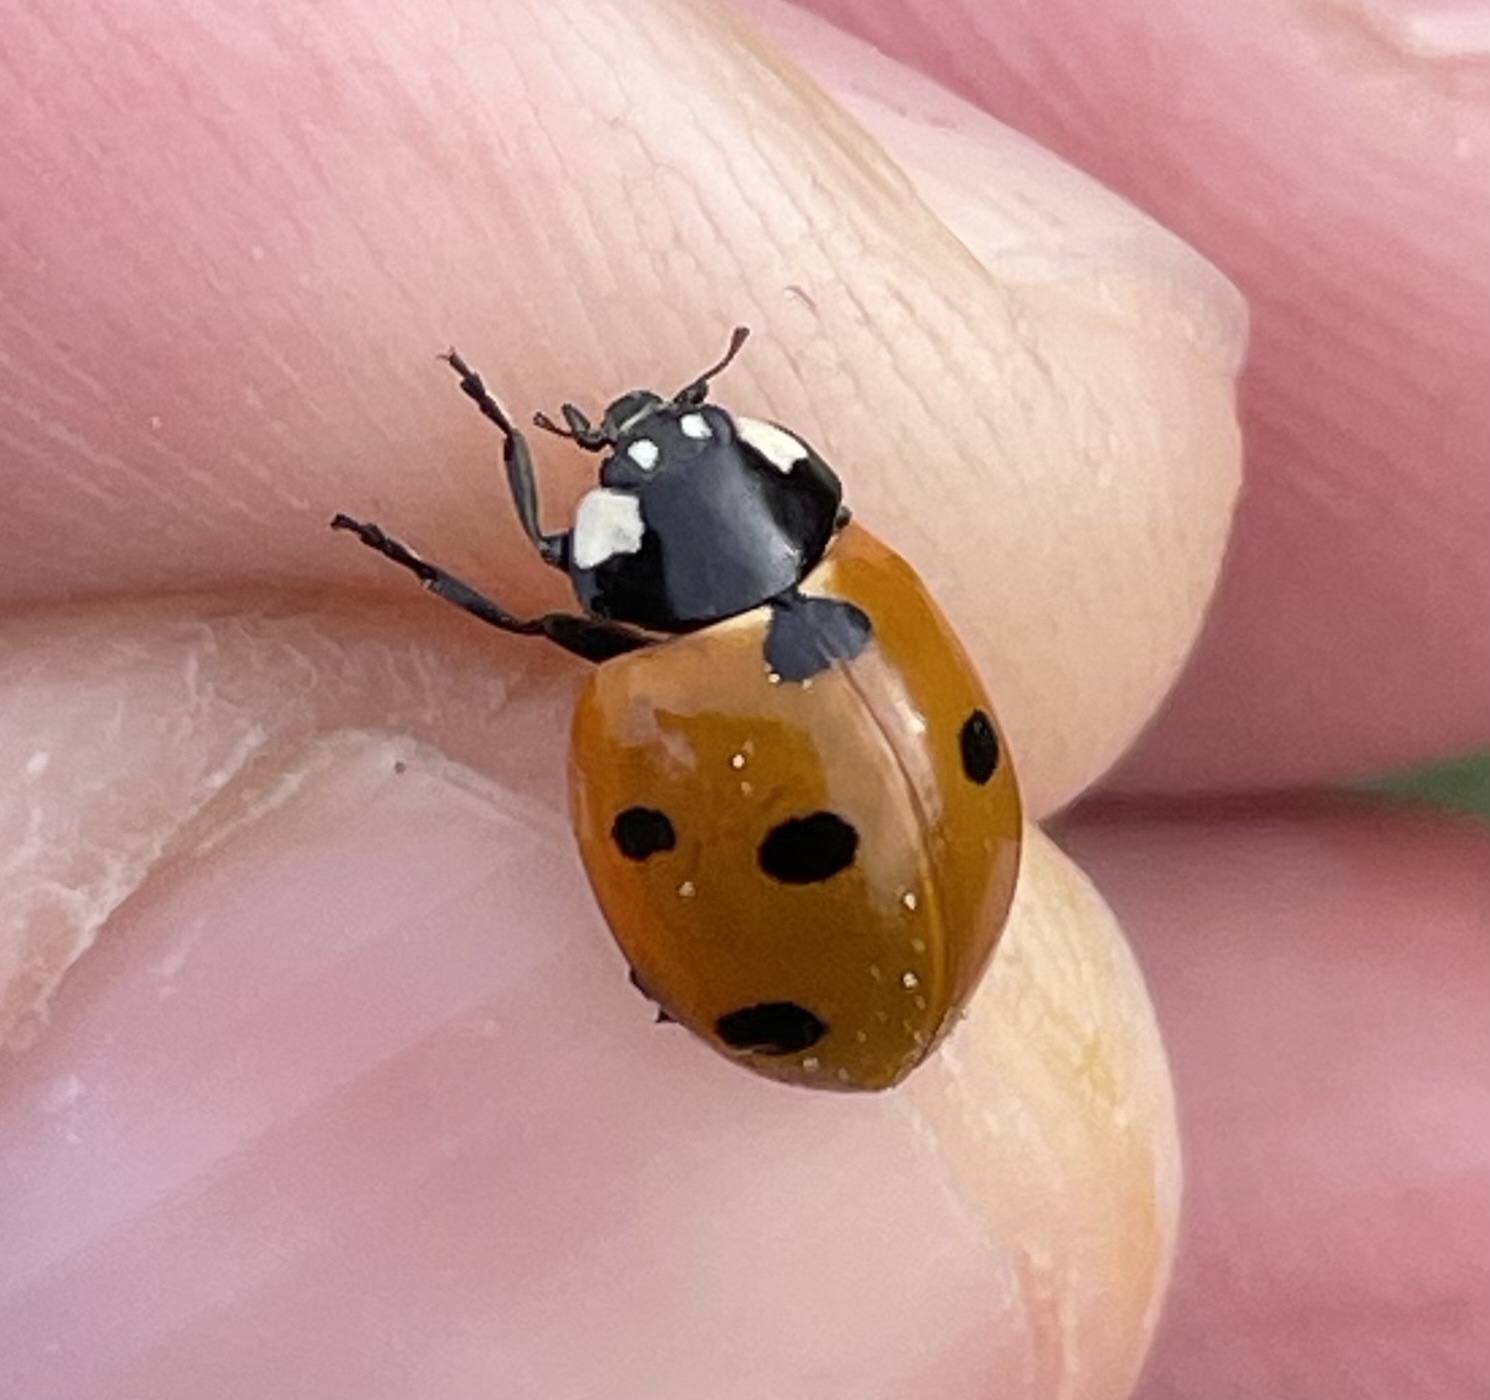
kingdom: Animalia
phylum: Arthropoda
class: Insecta
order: Coleoptera
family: Coccinellidae
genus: Coccinella
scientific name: Coccinella septempunctata
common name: Sevenspotted lady beetle
